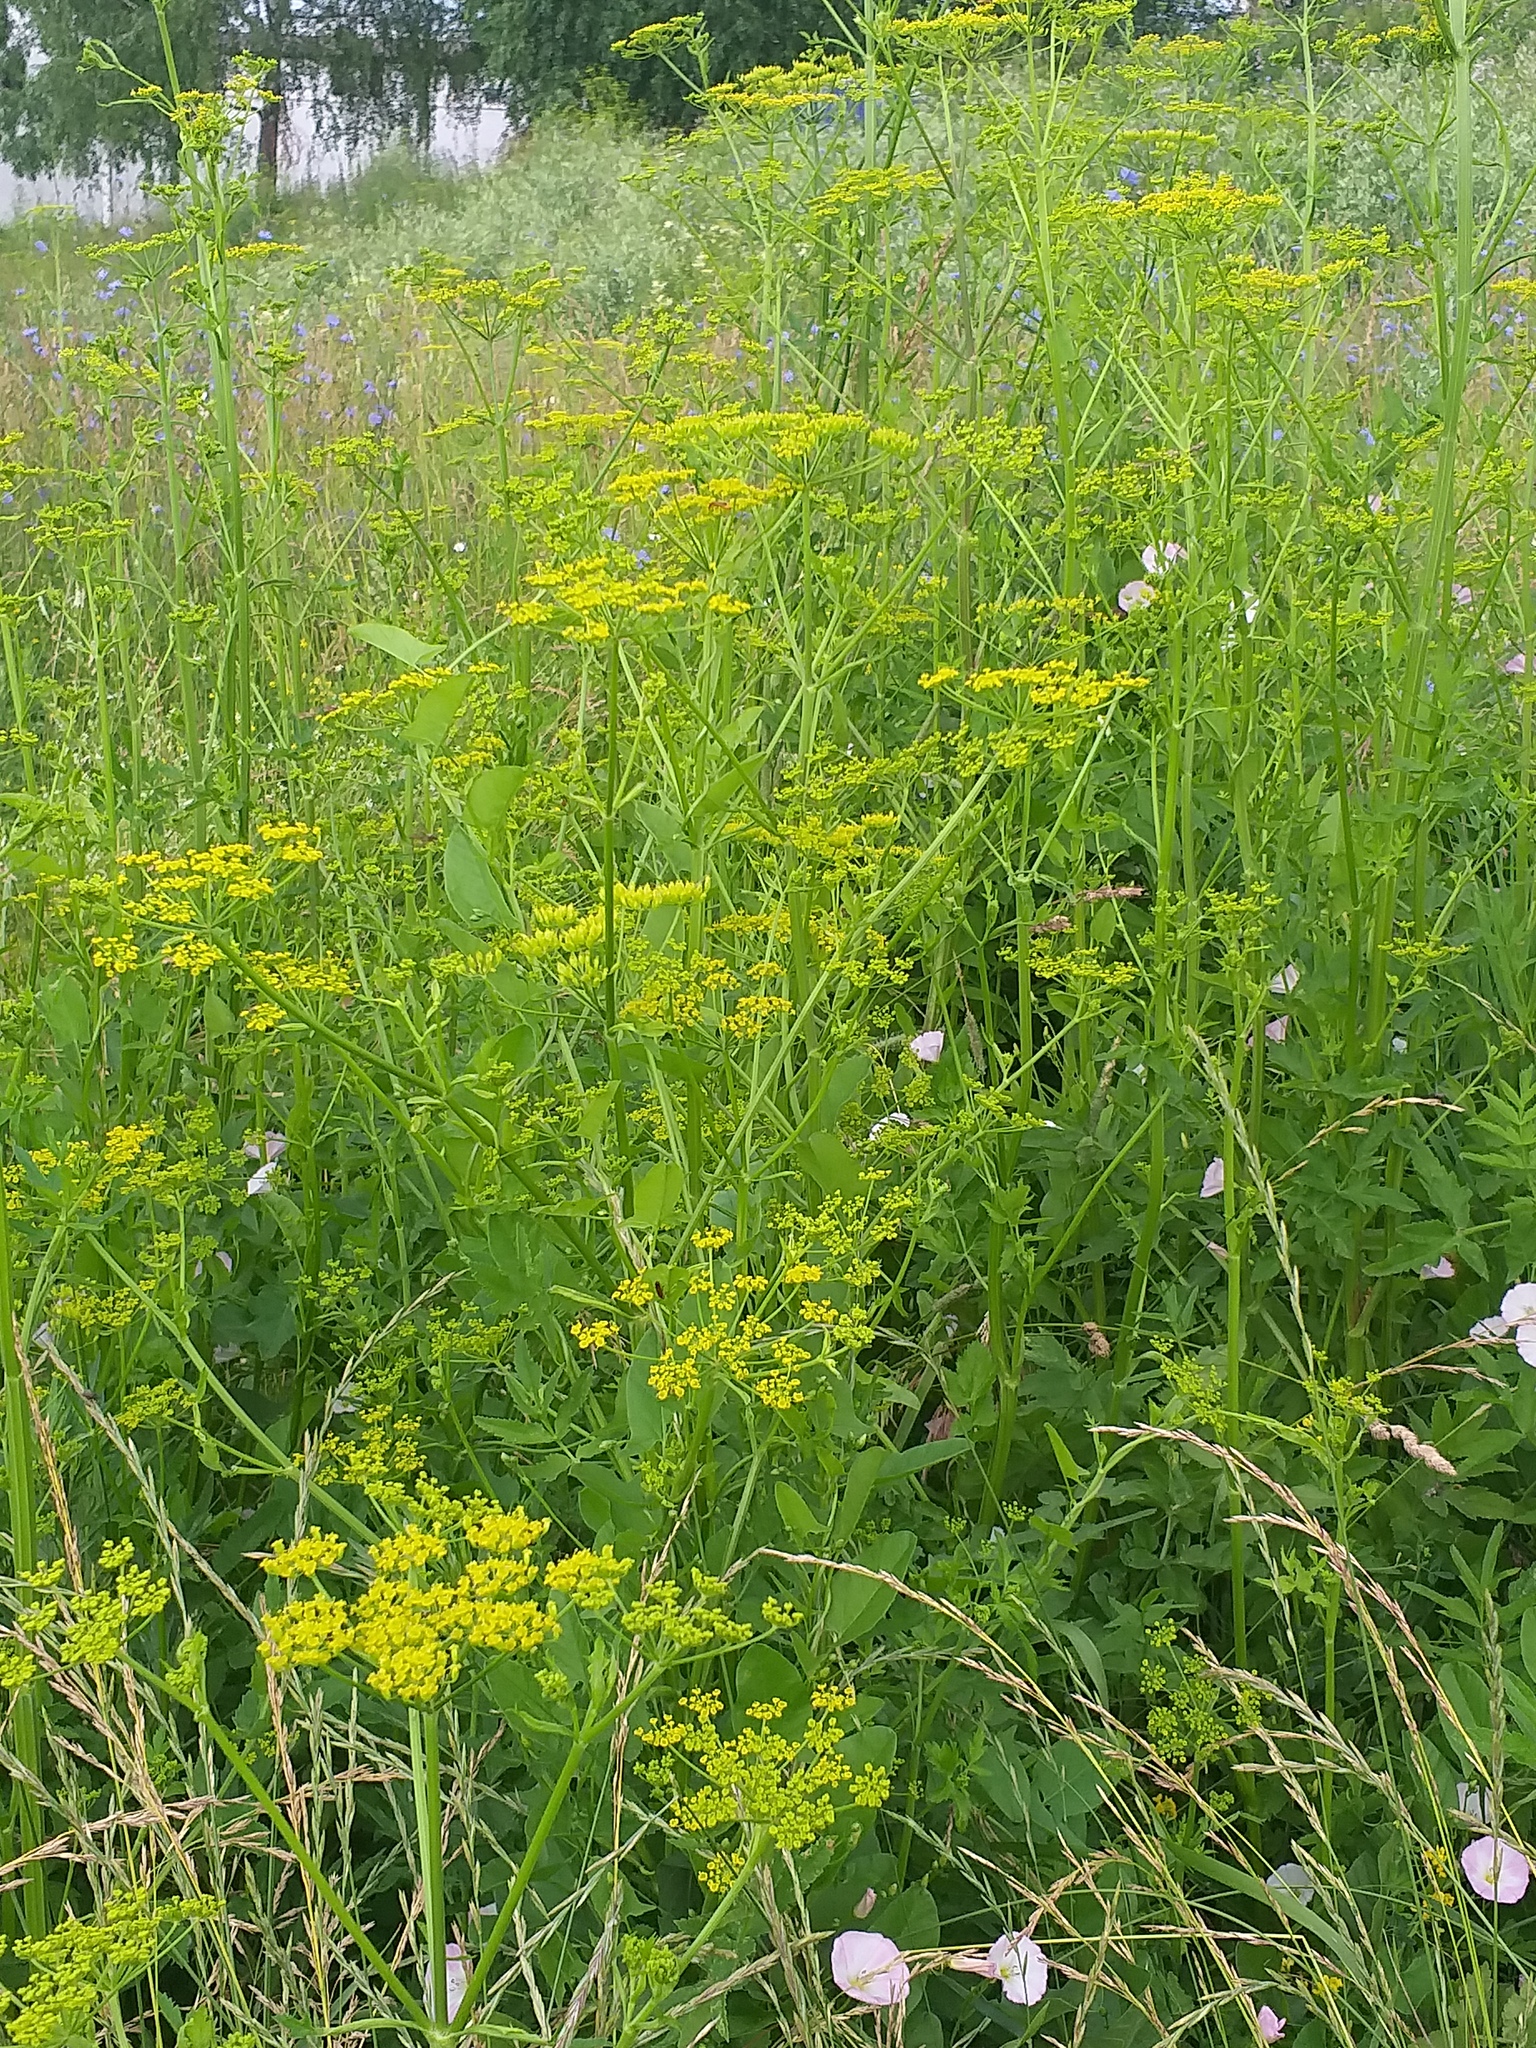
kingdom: Plantae
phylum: Tracheophyta
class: Magnoliopsida
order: Apiales
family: Apiaceae
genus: Pastinaca
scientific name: Pastinaca sativa
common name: Wild parsnip
